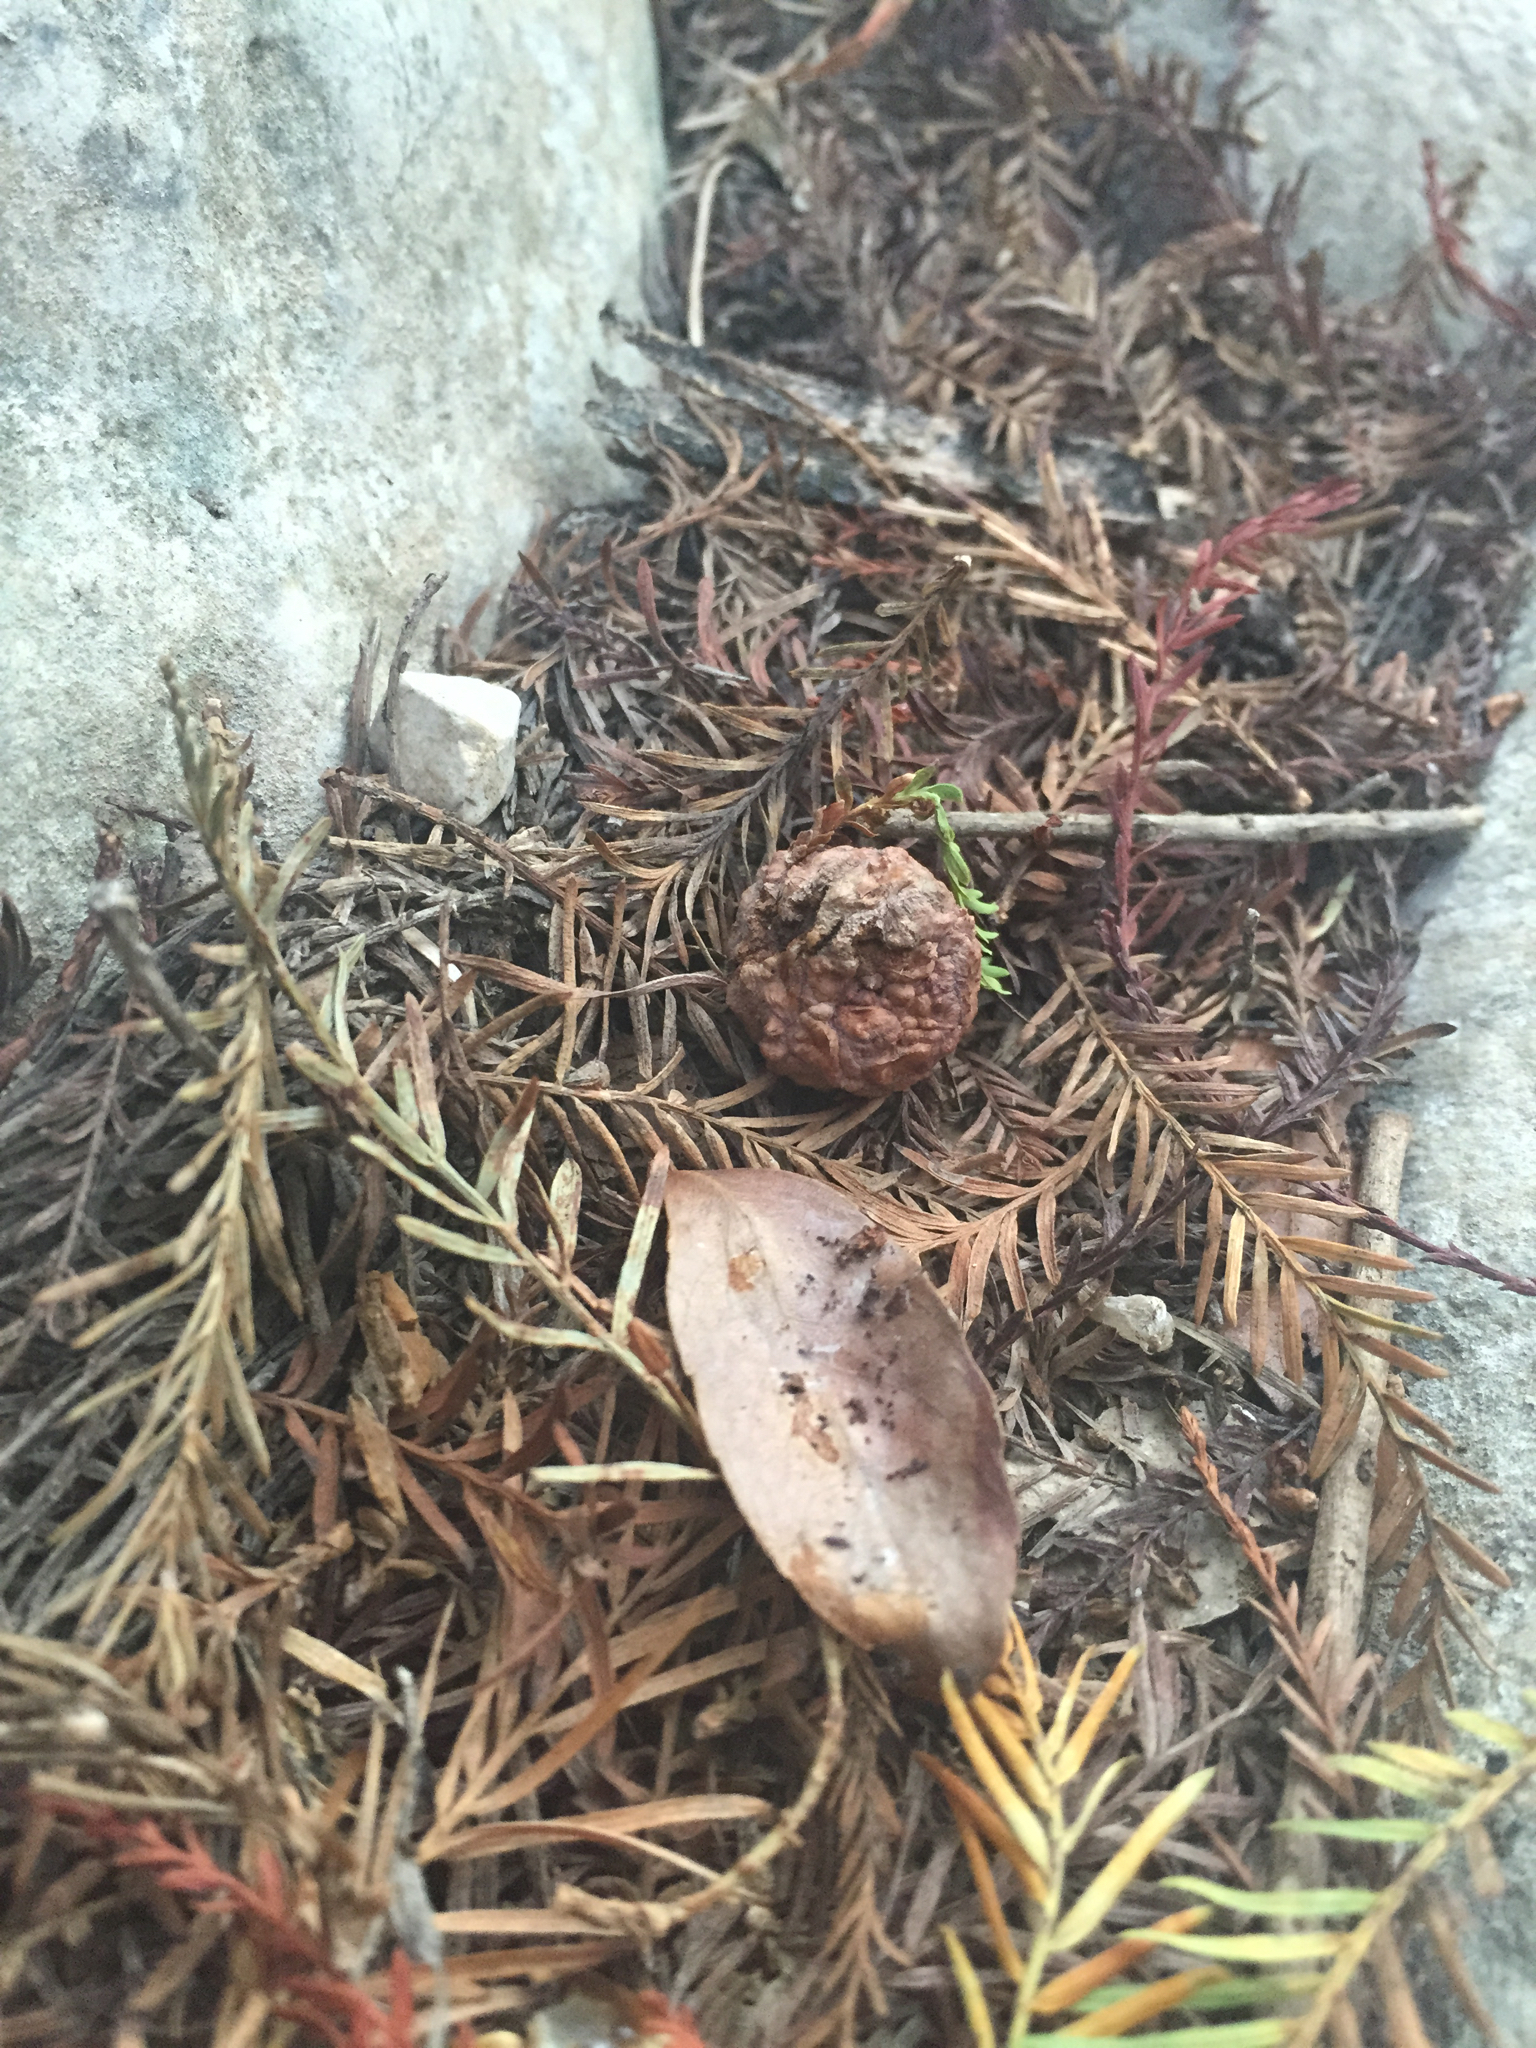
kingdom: Plantae
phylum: Tracheophyta
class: Pinopsida
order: Pinales
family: Cupressaceae
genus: Taxodium
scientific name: Taxodium mucronatum
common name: Montezume bald cypress
